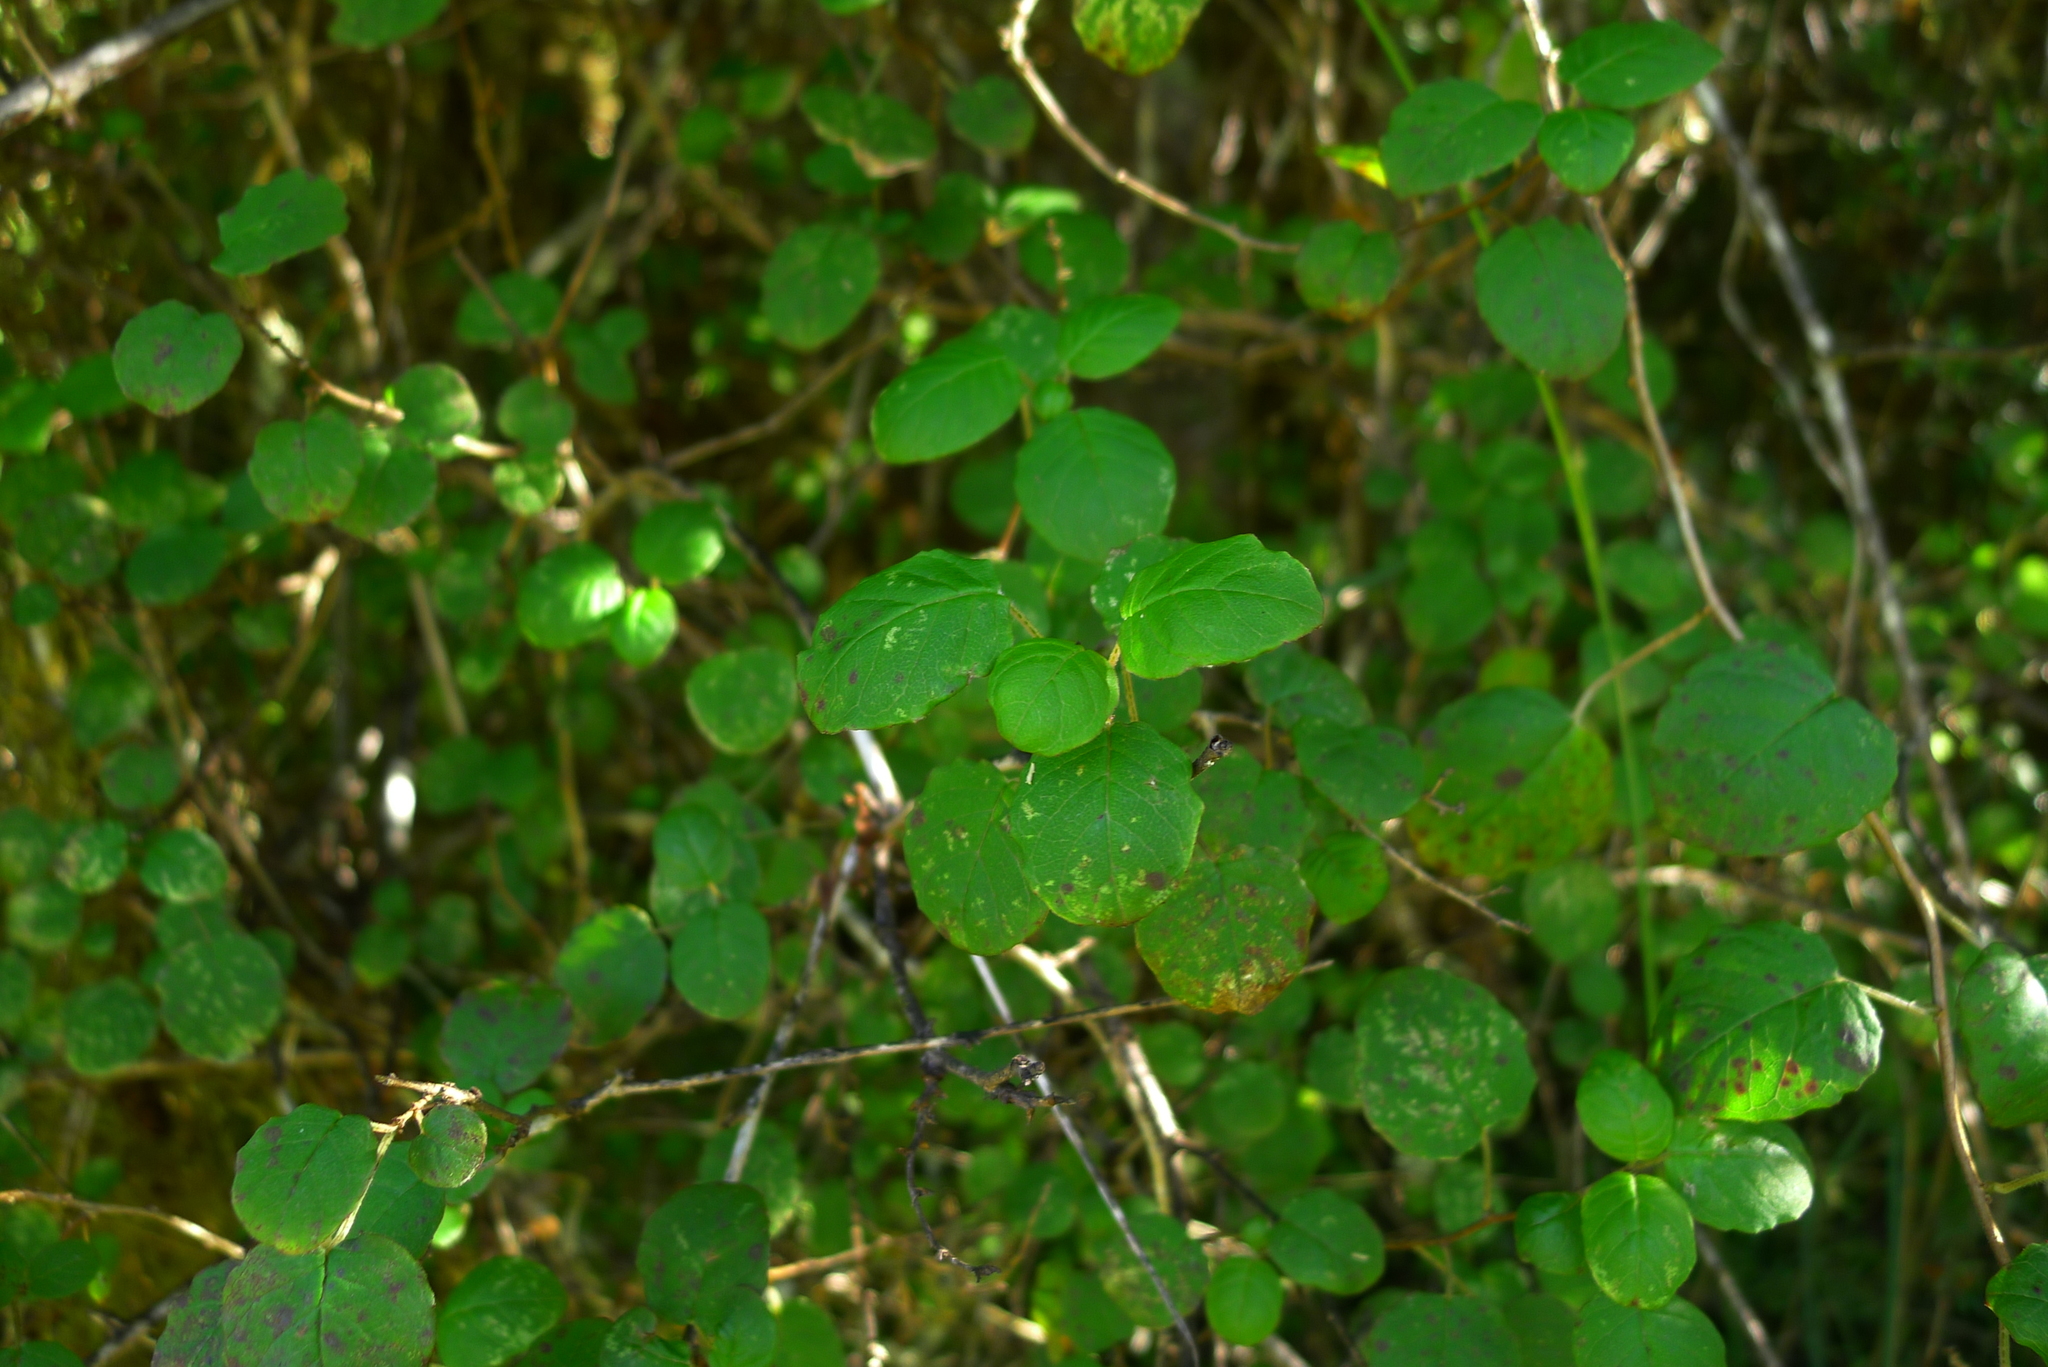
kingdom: Plantae
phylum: Tracheophyta
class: Magnoliopsida
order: Myrtales
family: Onagraceae
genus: Fuchsia
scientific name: Fuchsia perscandens
